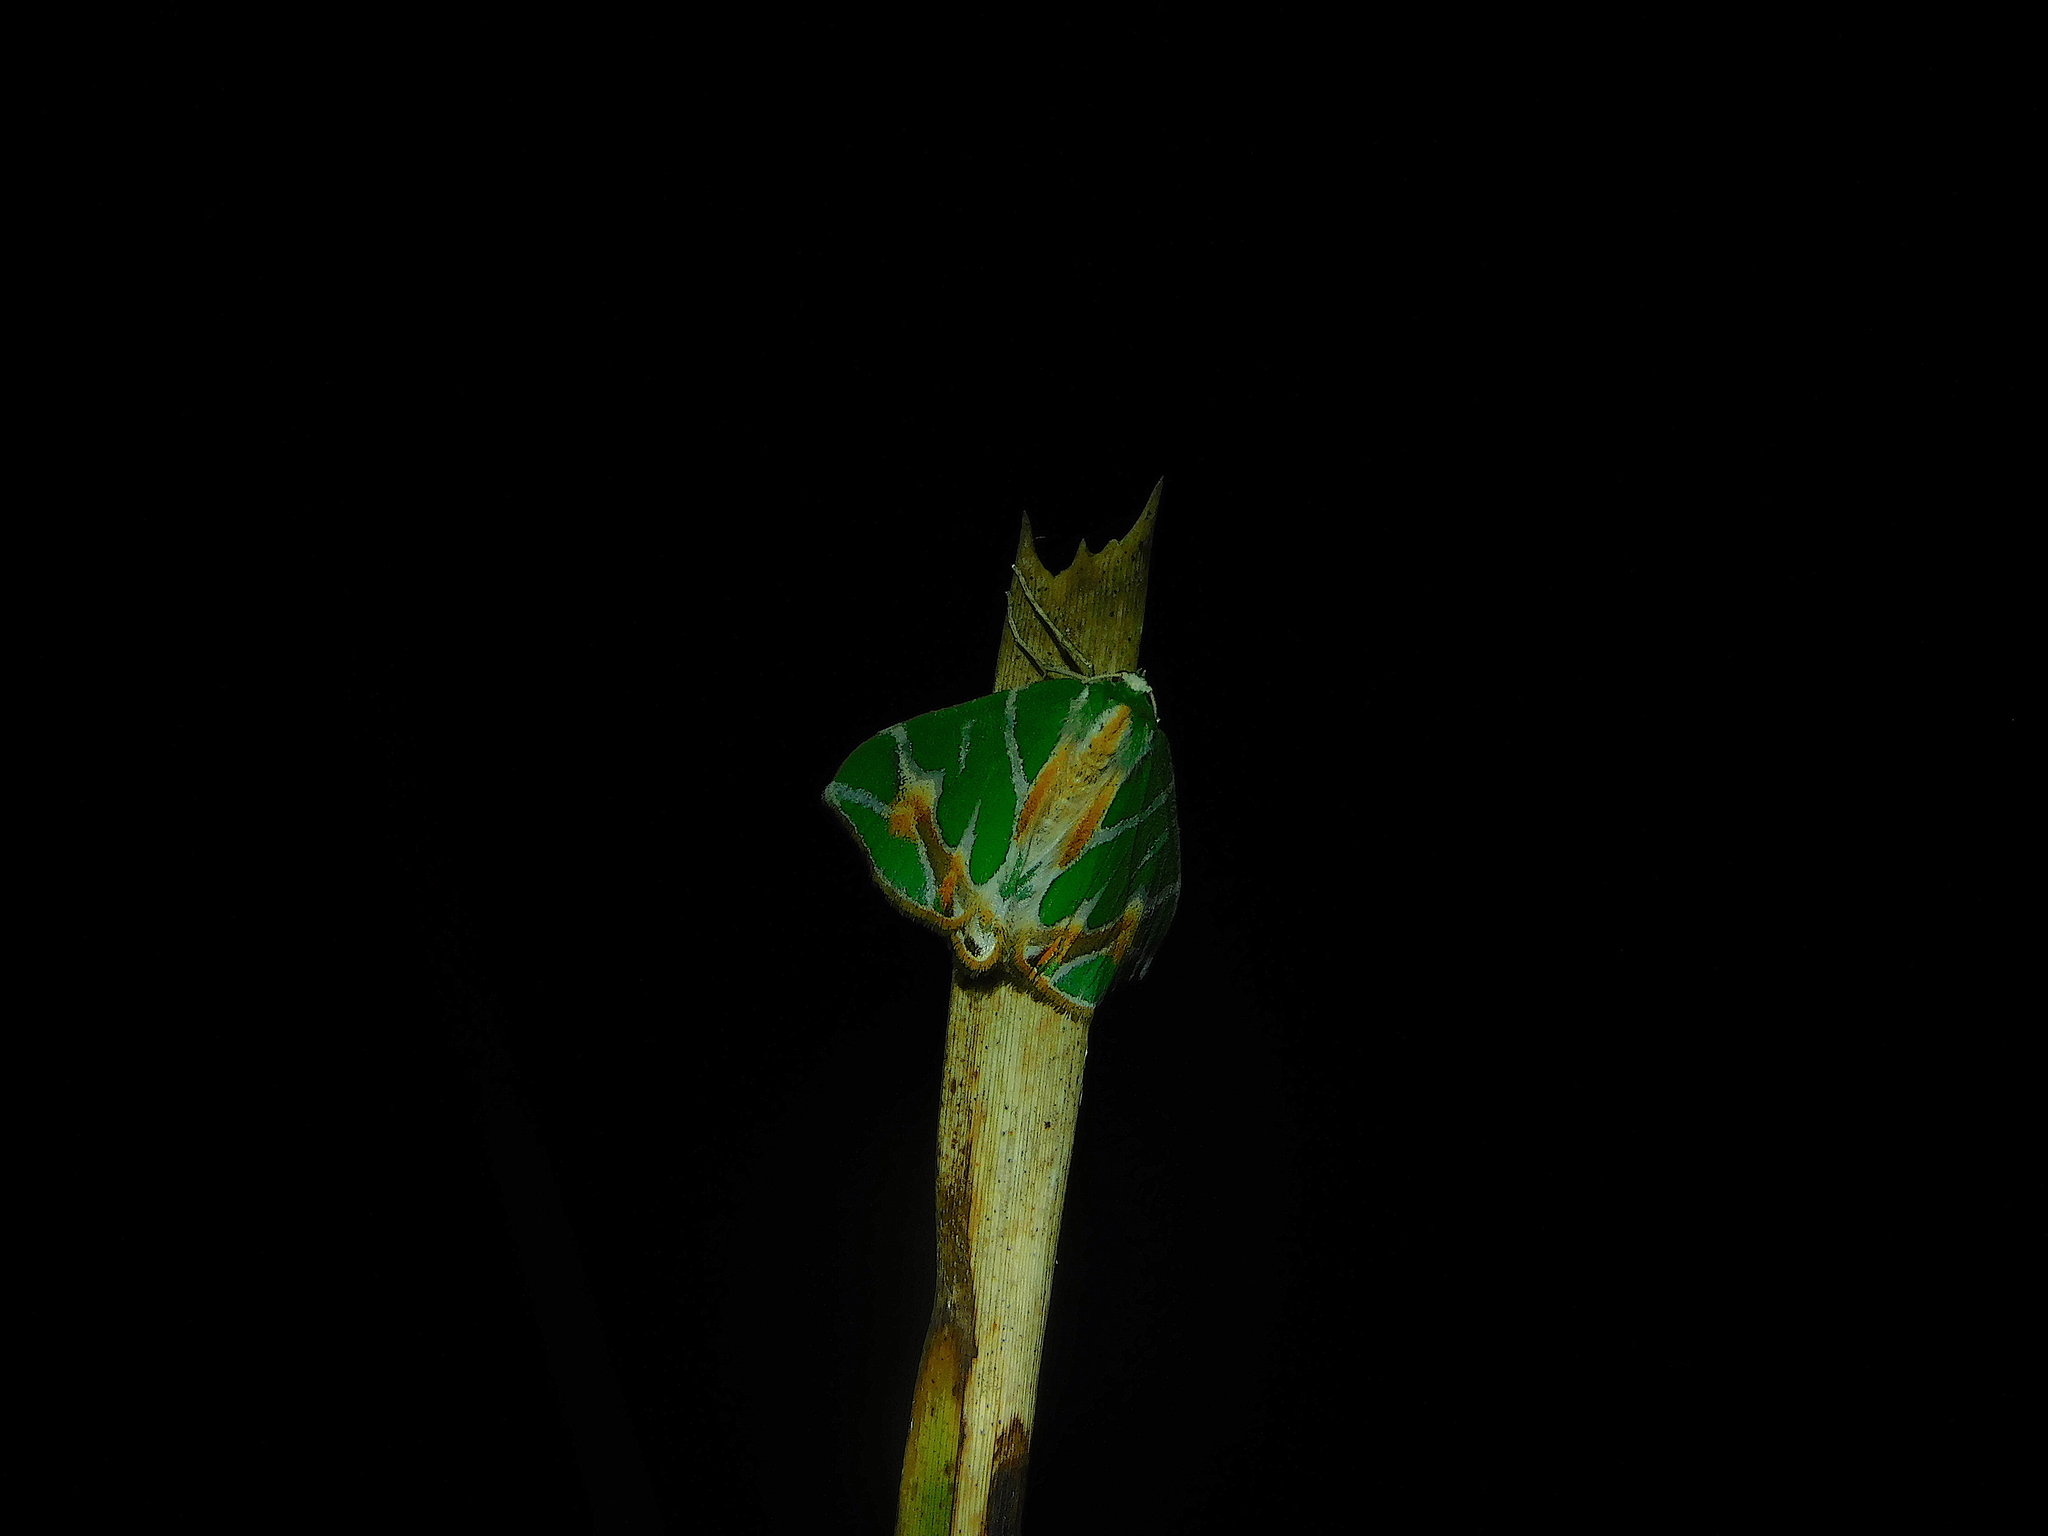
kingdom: Animalia
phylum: Arthropoda
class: Insecta
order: Lepidoptera
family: Geometridae
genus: Chlorodes
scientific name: Chlorodes boisduvalaria
